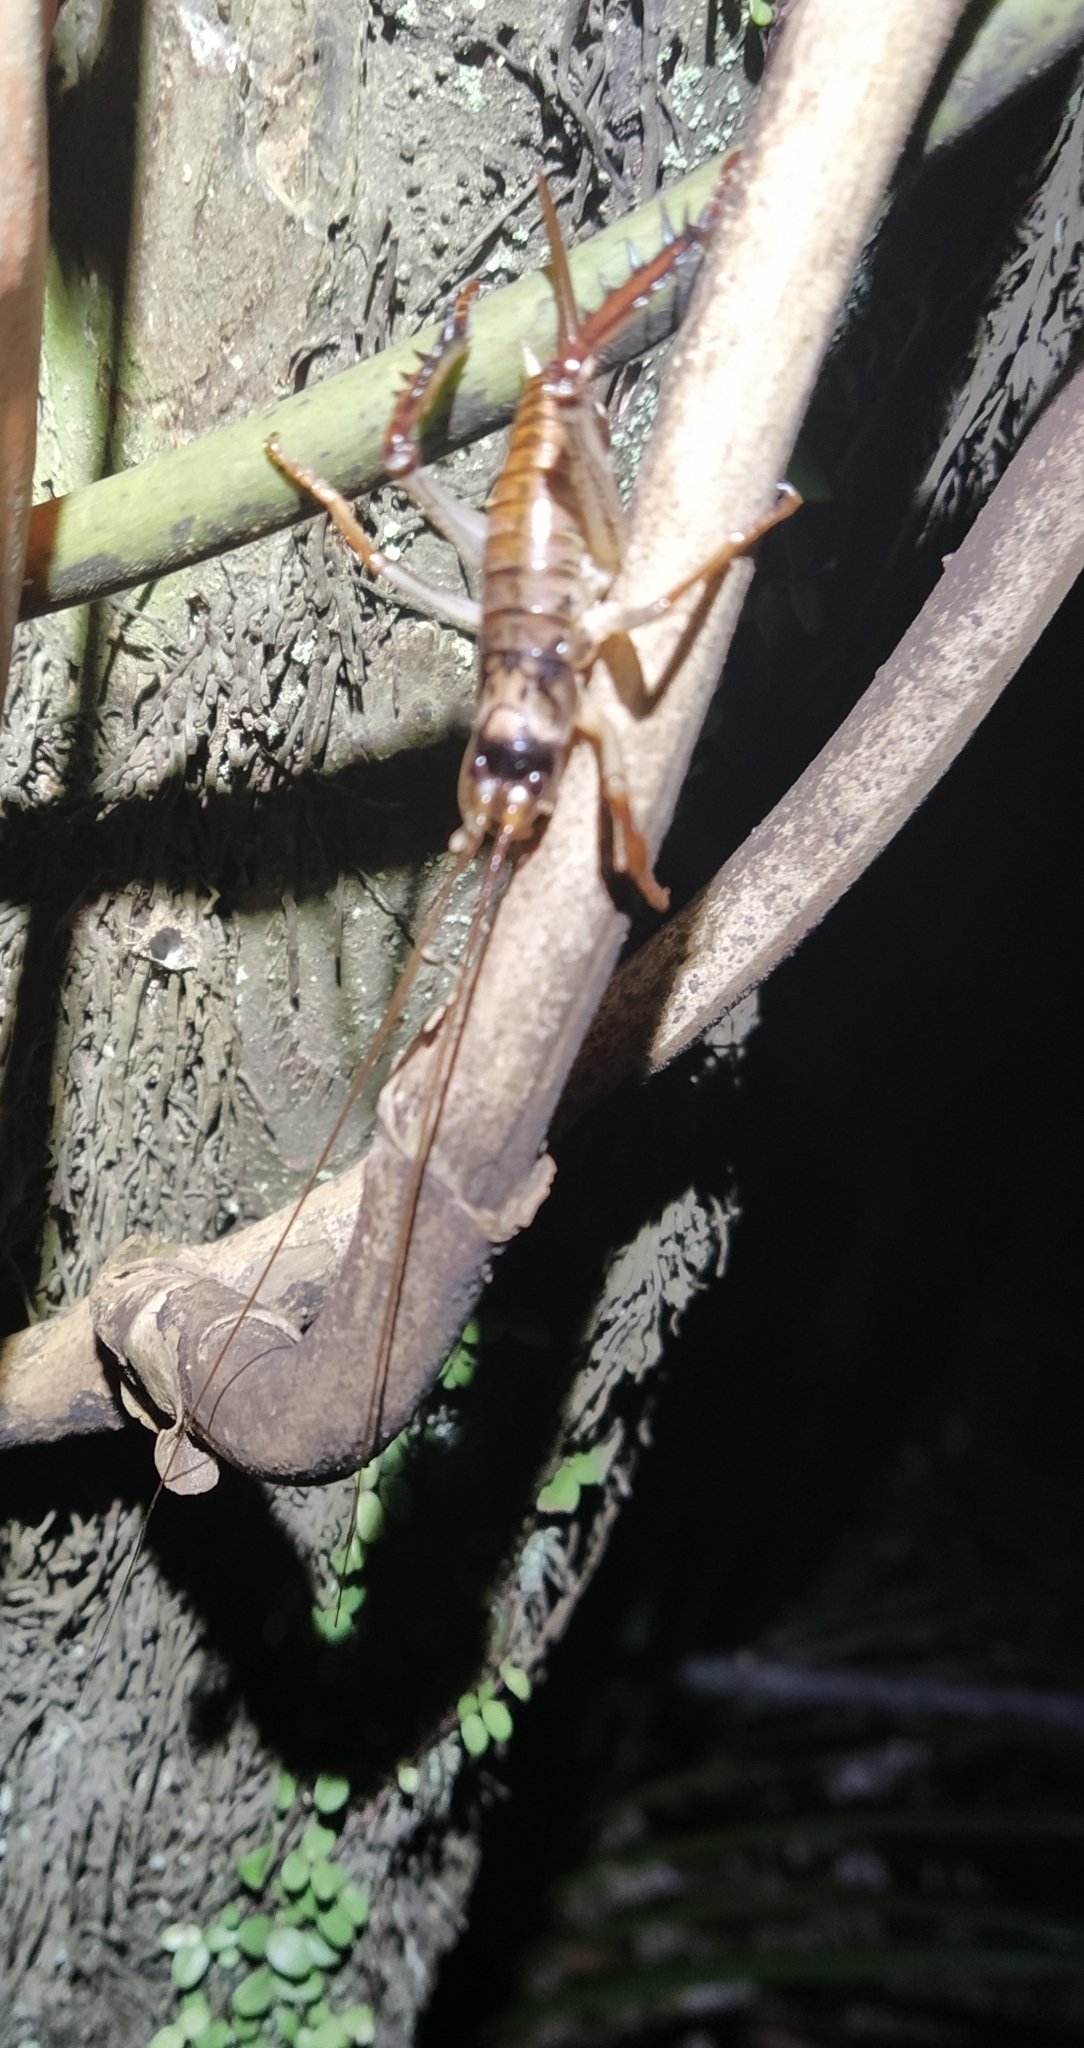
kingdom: Animalia
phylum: Arthropoda
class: Insecta
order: Orthoptera
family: Anostostomatidae
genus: Hemideina
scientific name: Hemideina thoracica
